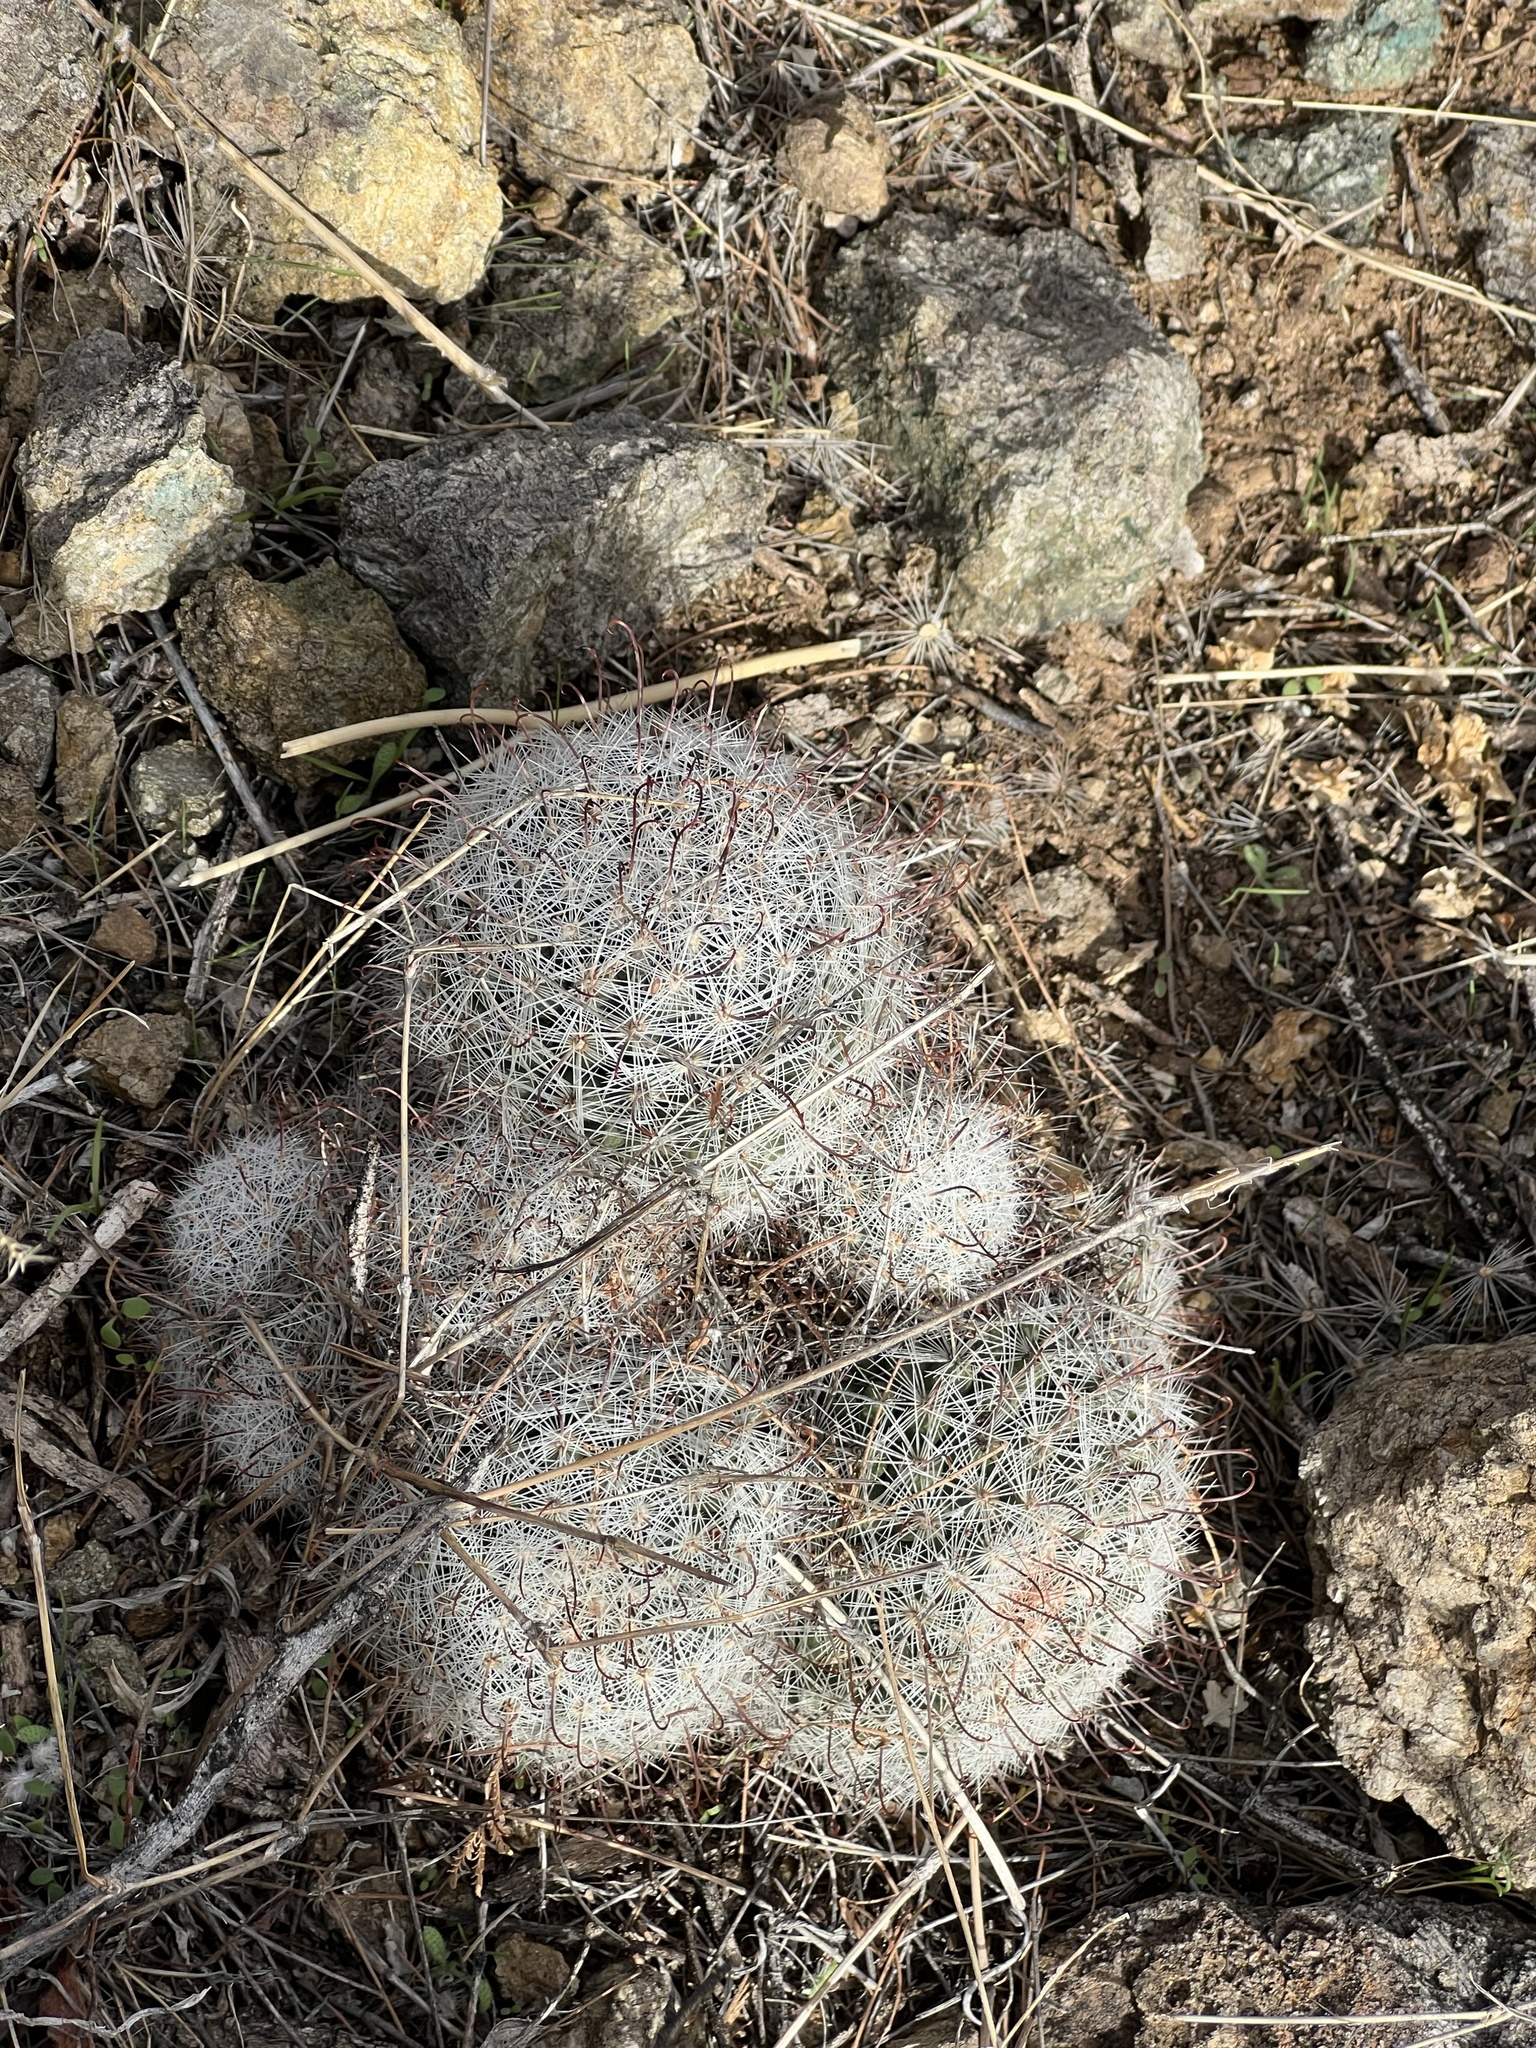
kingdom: Plantae
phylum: Tracheophyta
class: Magnoliopsida
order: Caryophyllales
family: Cactaceae
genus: Cochemiea
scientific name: Cochemiea grahamii
